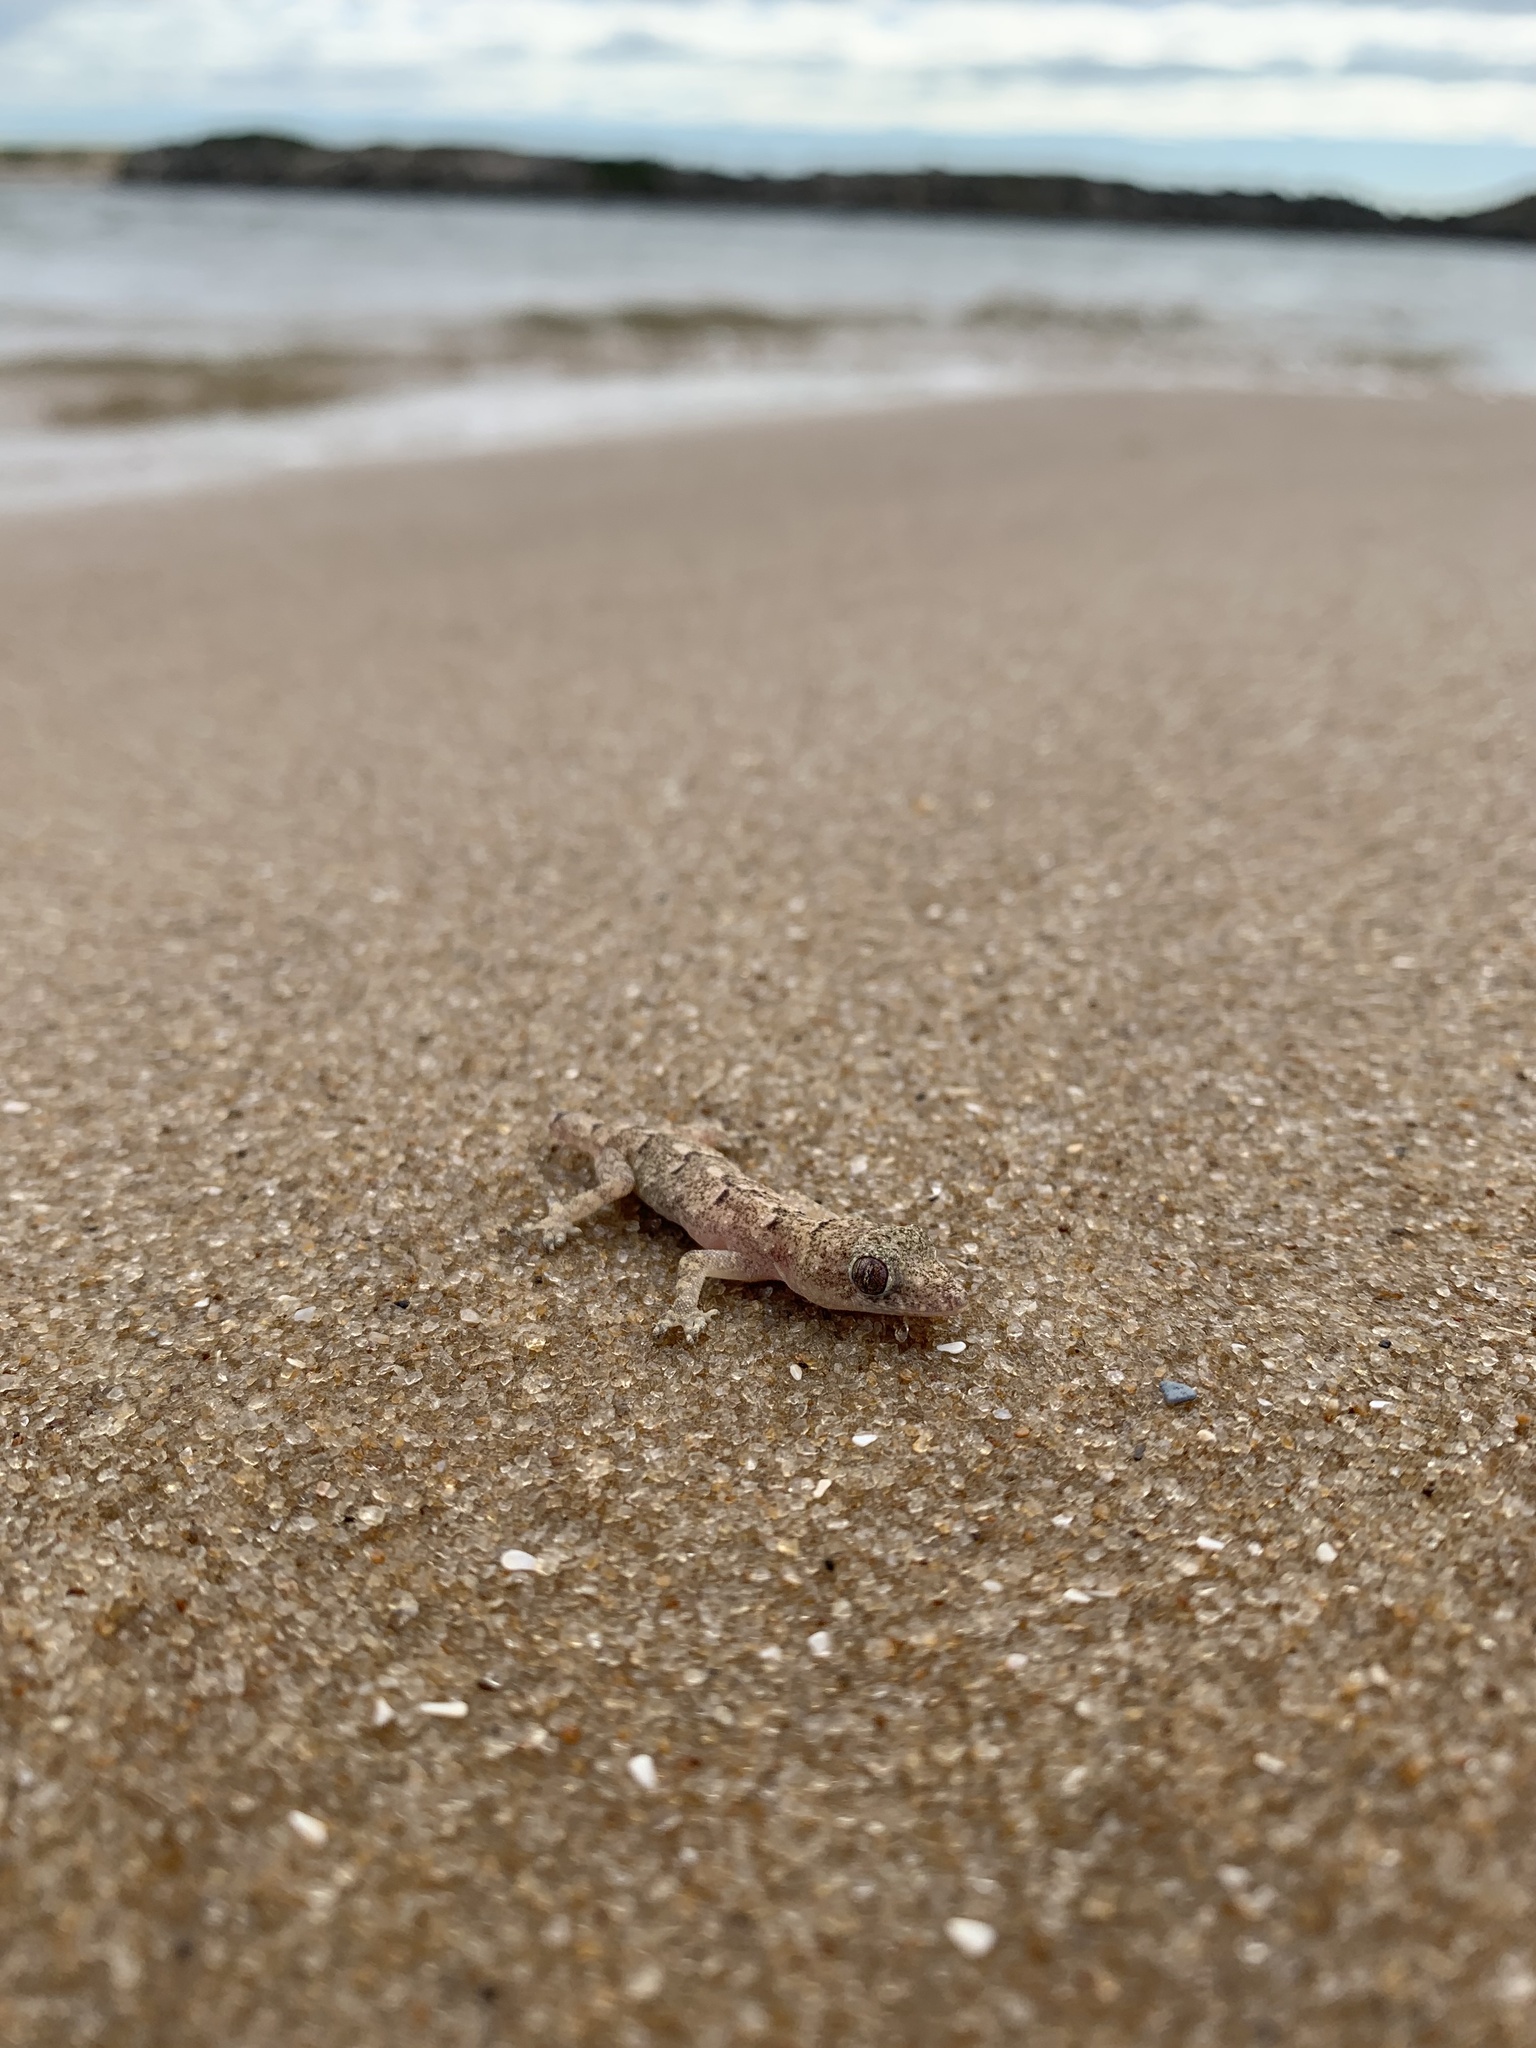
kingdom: Animalia
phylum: Chordata
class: Squamata
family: Gekkonidae
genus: Hemidactylus
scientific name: Hemidactylus mabouia
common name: House gecko
